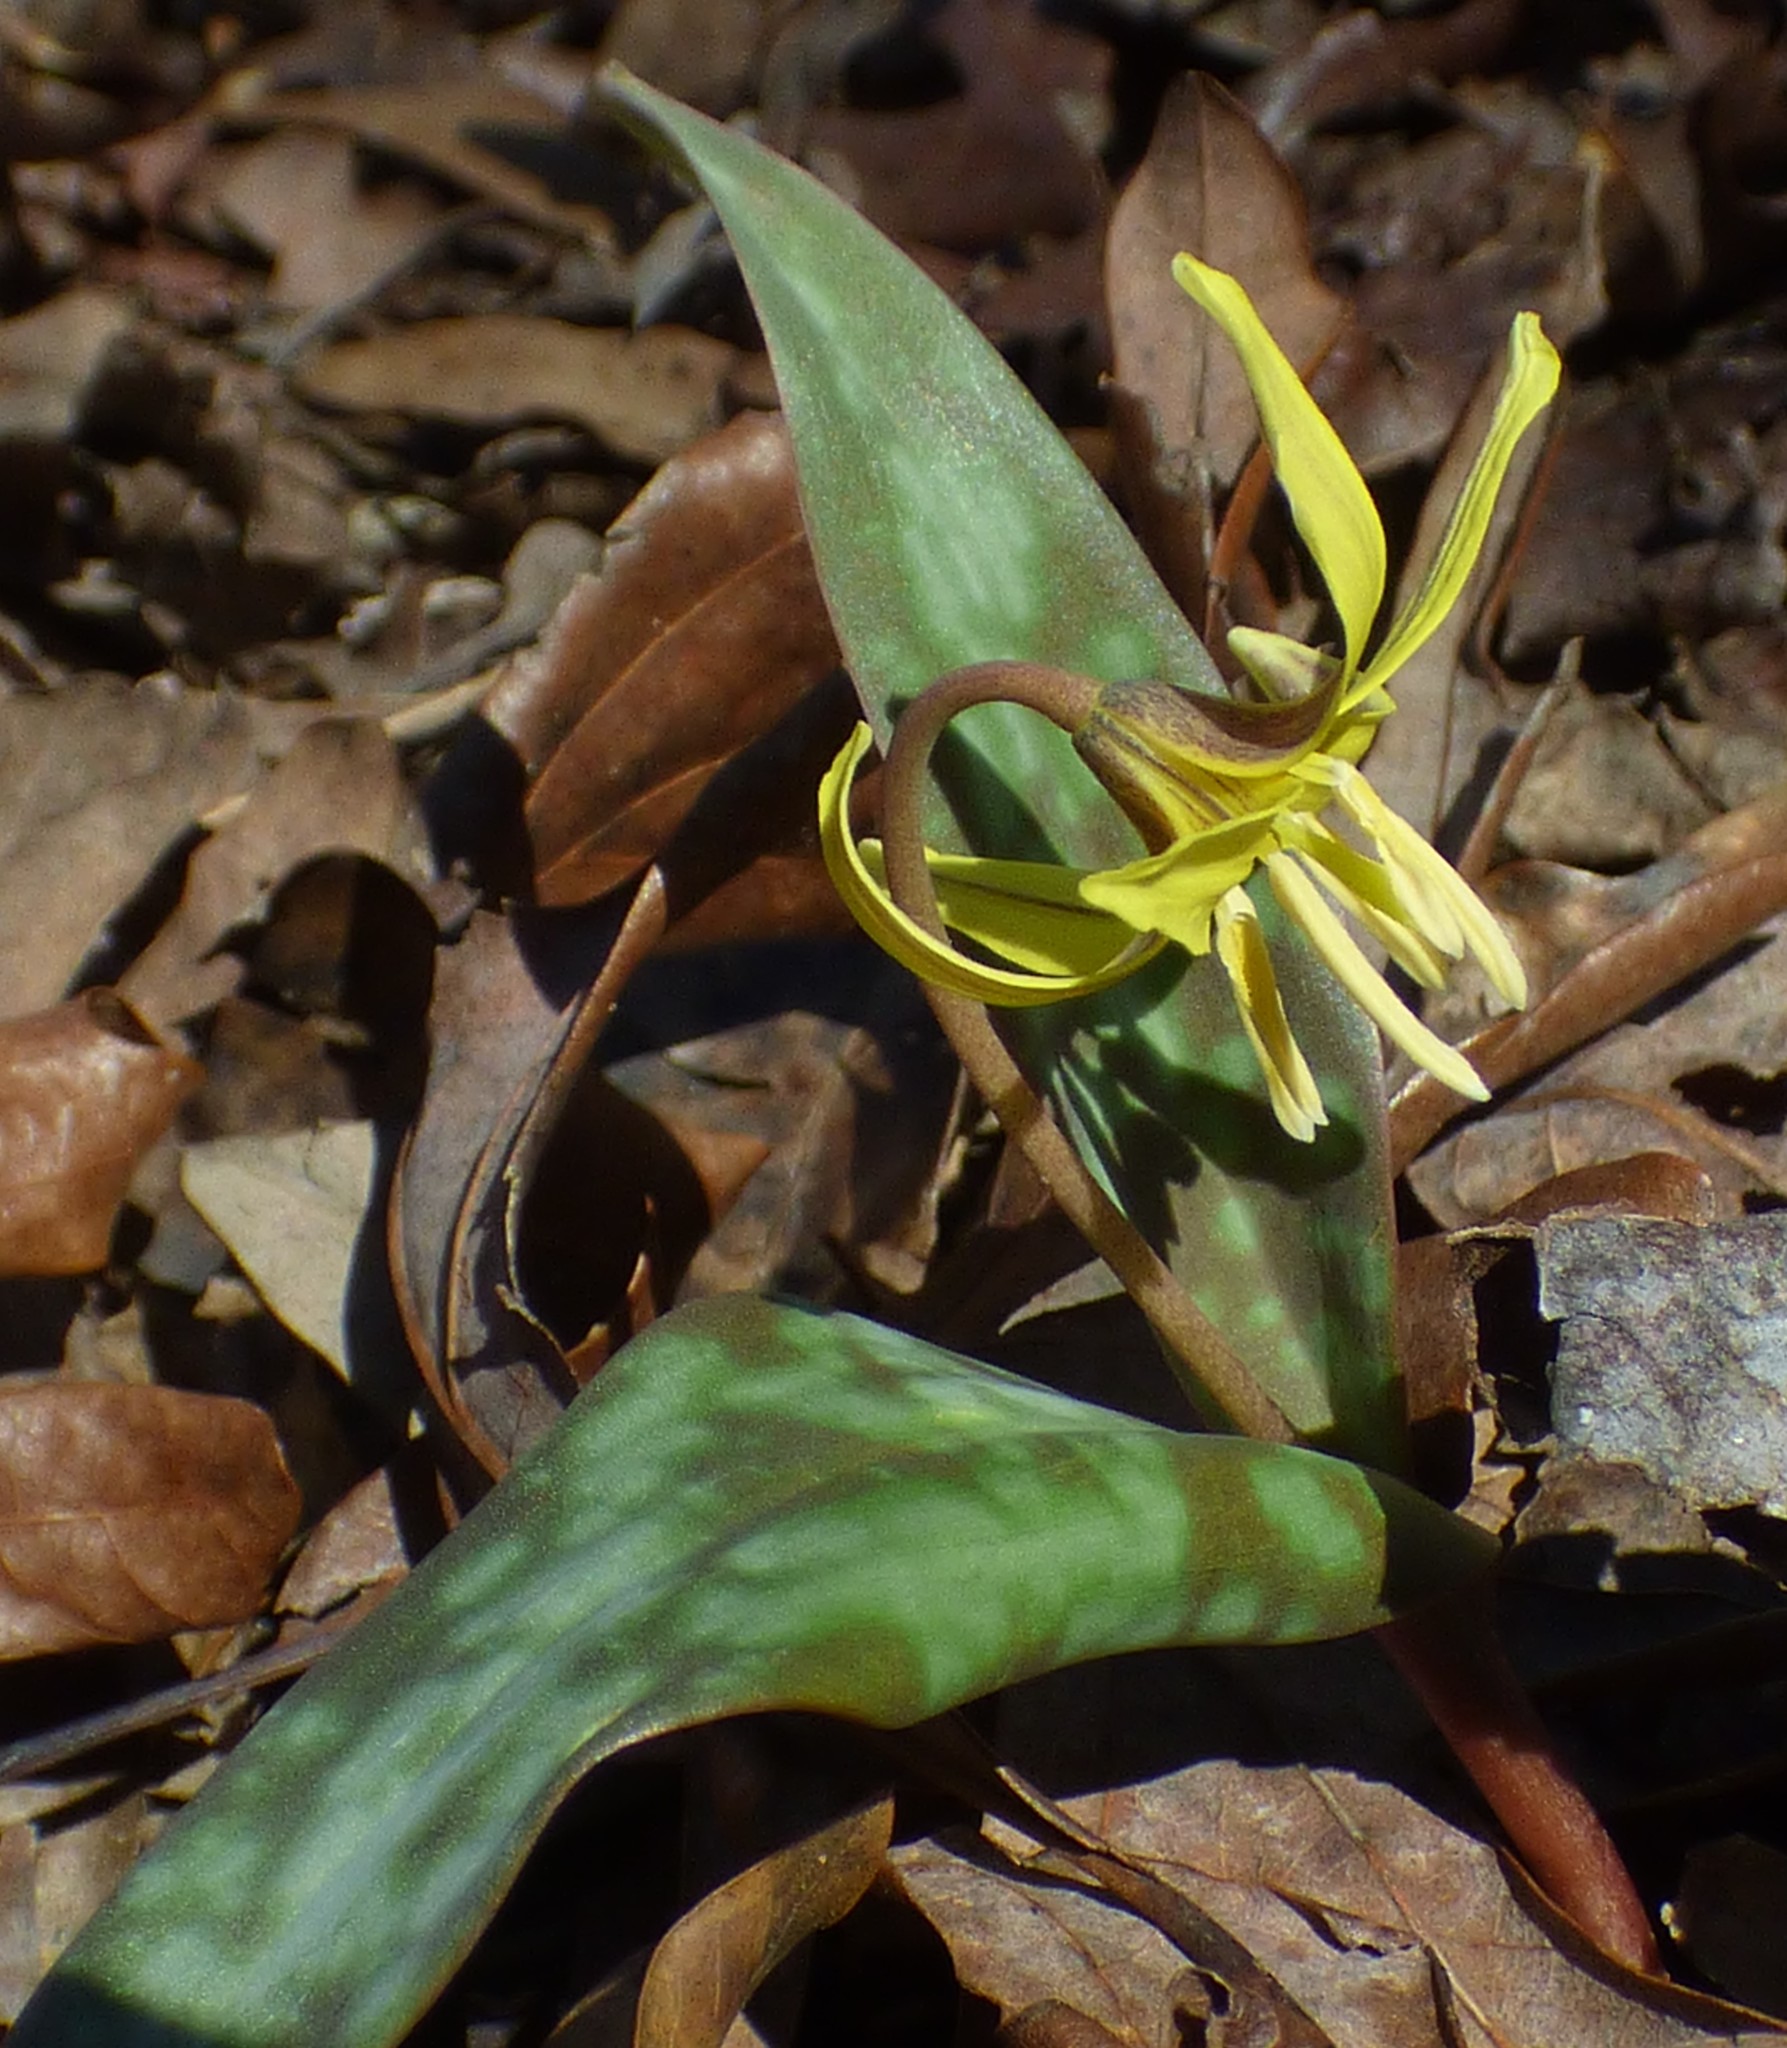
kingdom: Plantae
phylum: Tracheophyta
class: Liliopsida
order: Liliales
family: Liliaceae
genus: Erythronium
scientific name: Erythronium umbilicatum
